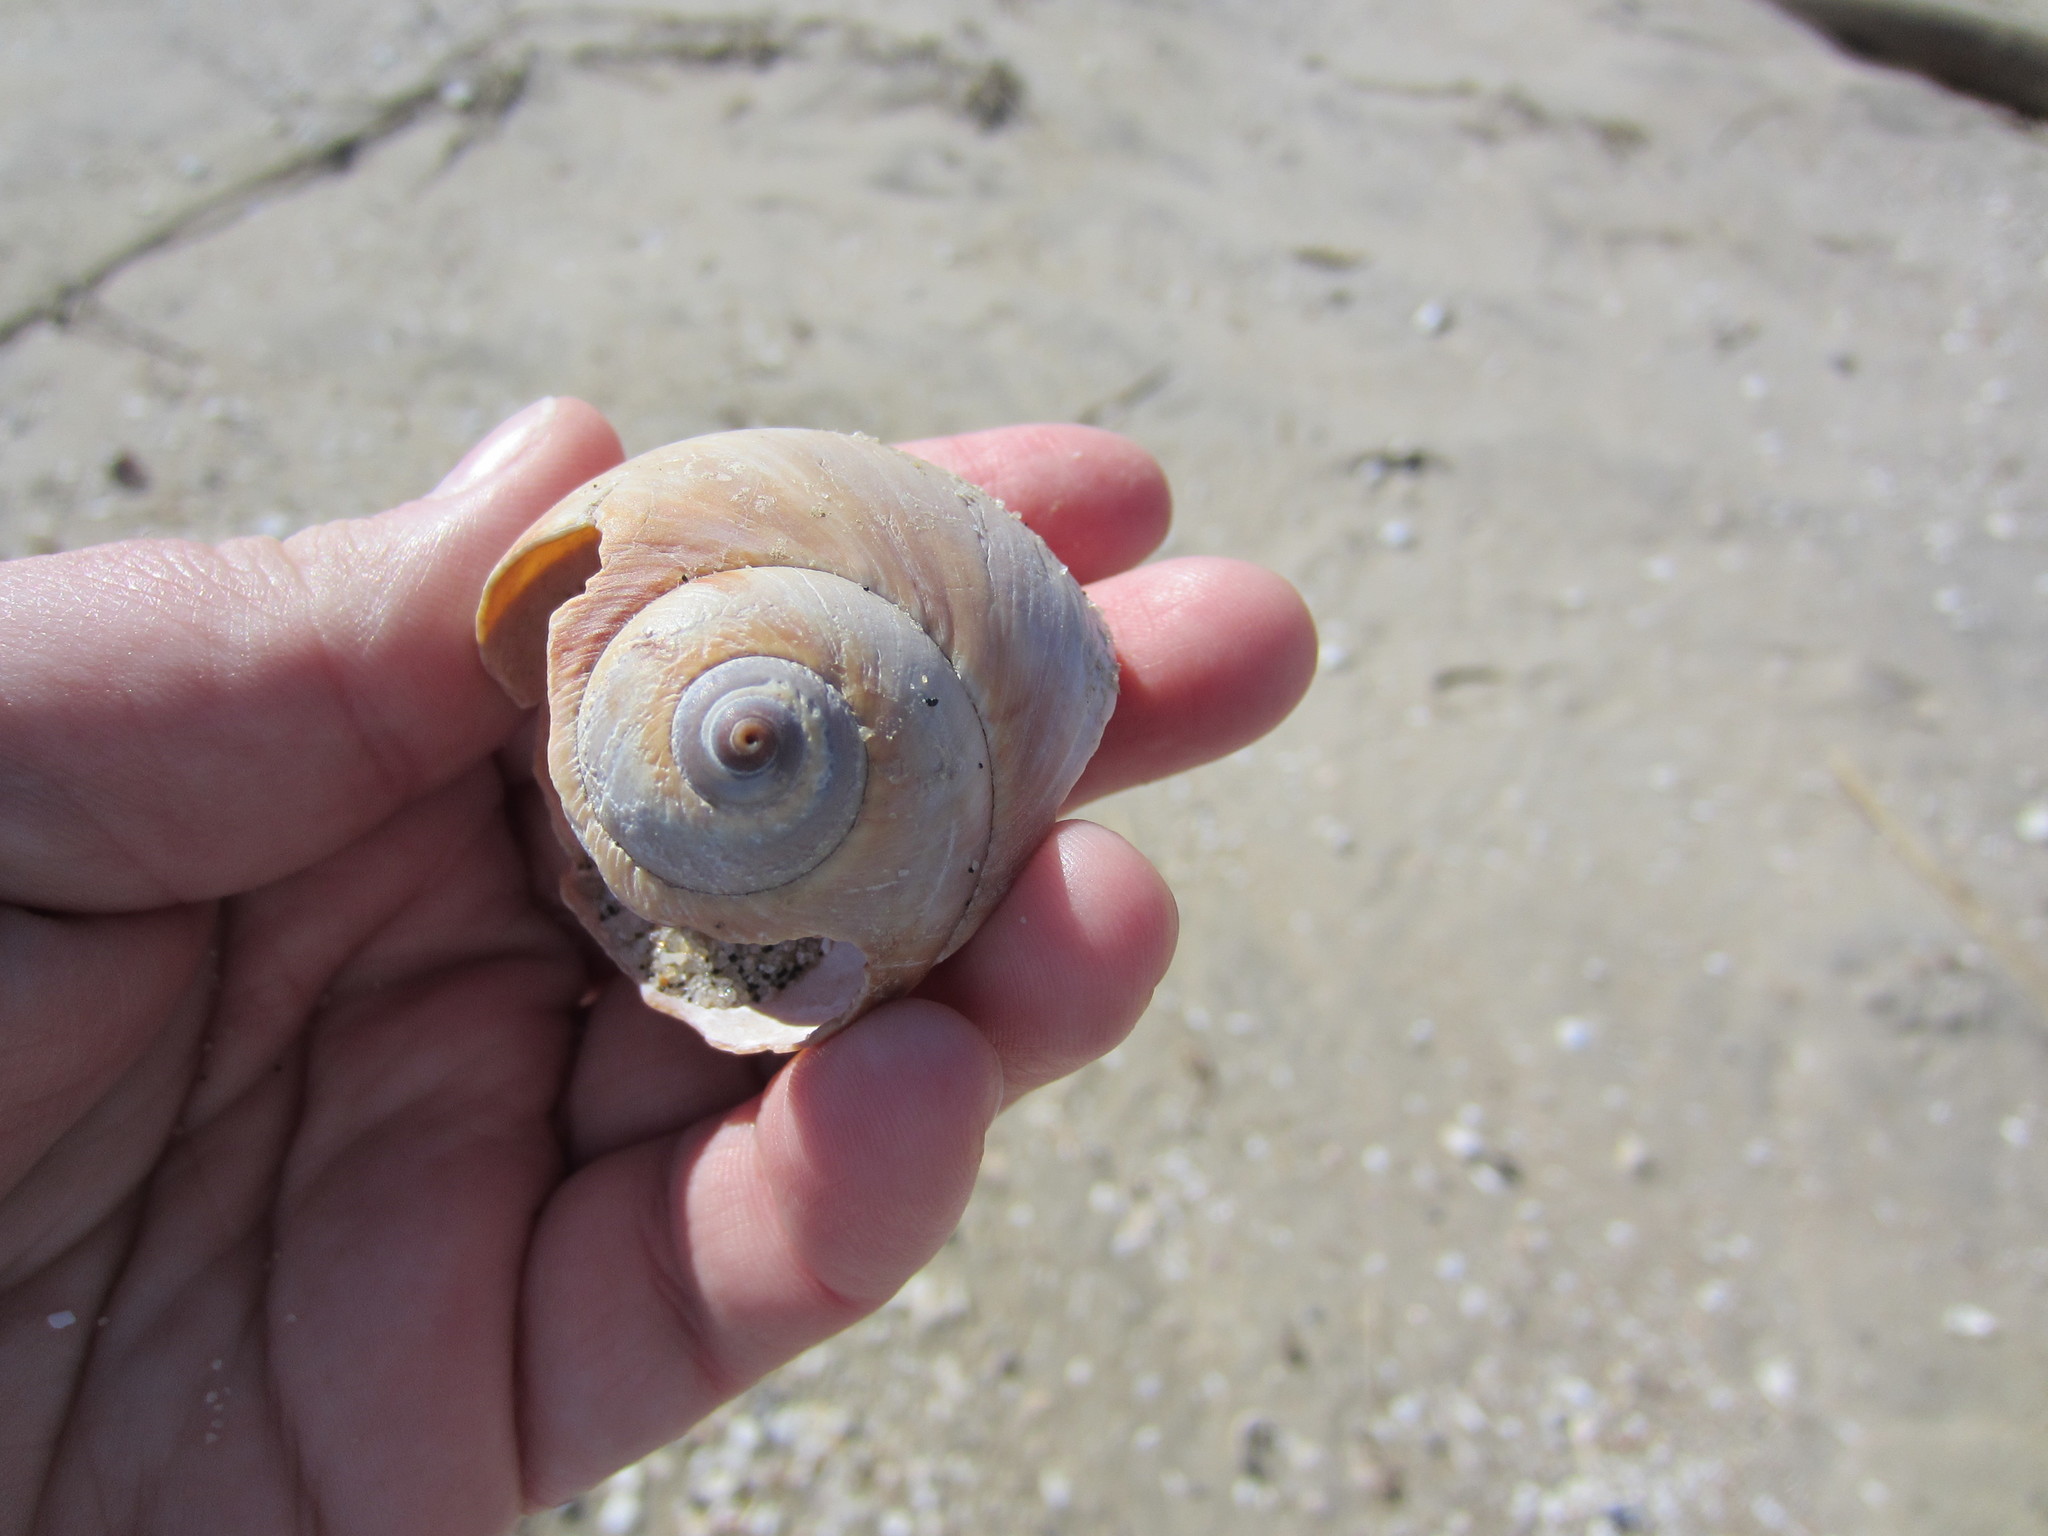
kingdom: Animalia
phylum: Mollusca
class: Gastropoda
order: Littorinimorpha
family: Naticidae
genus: Euspira
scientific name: Euspira heros
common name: Common northern moonsnail
